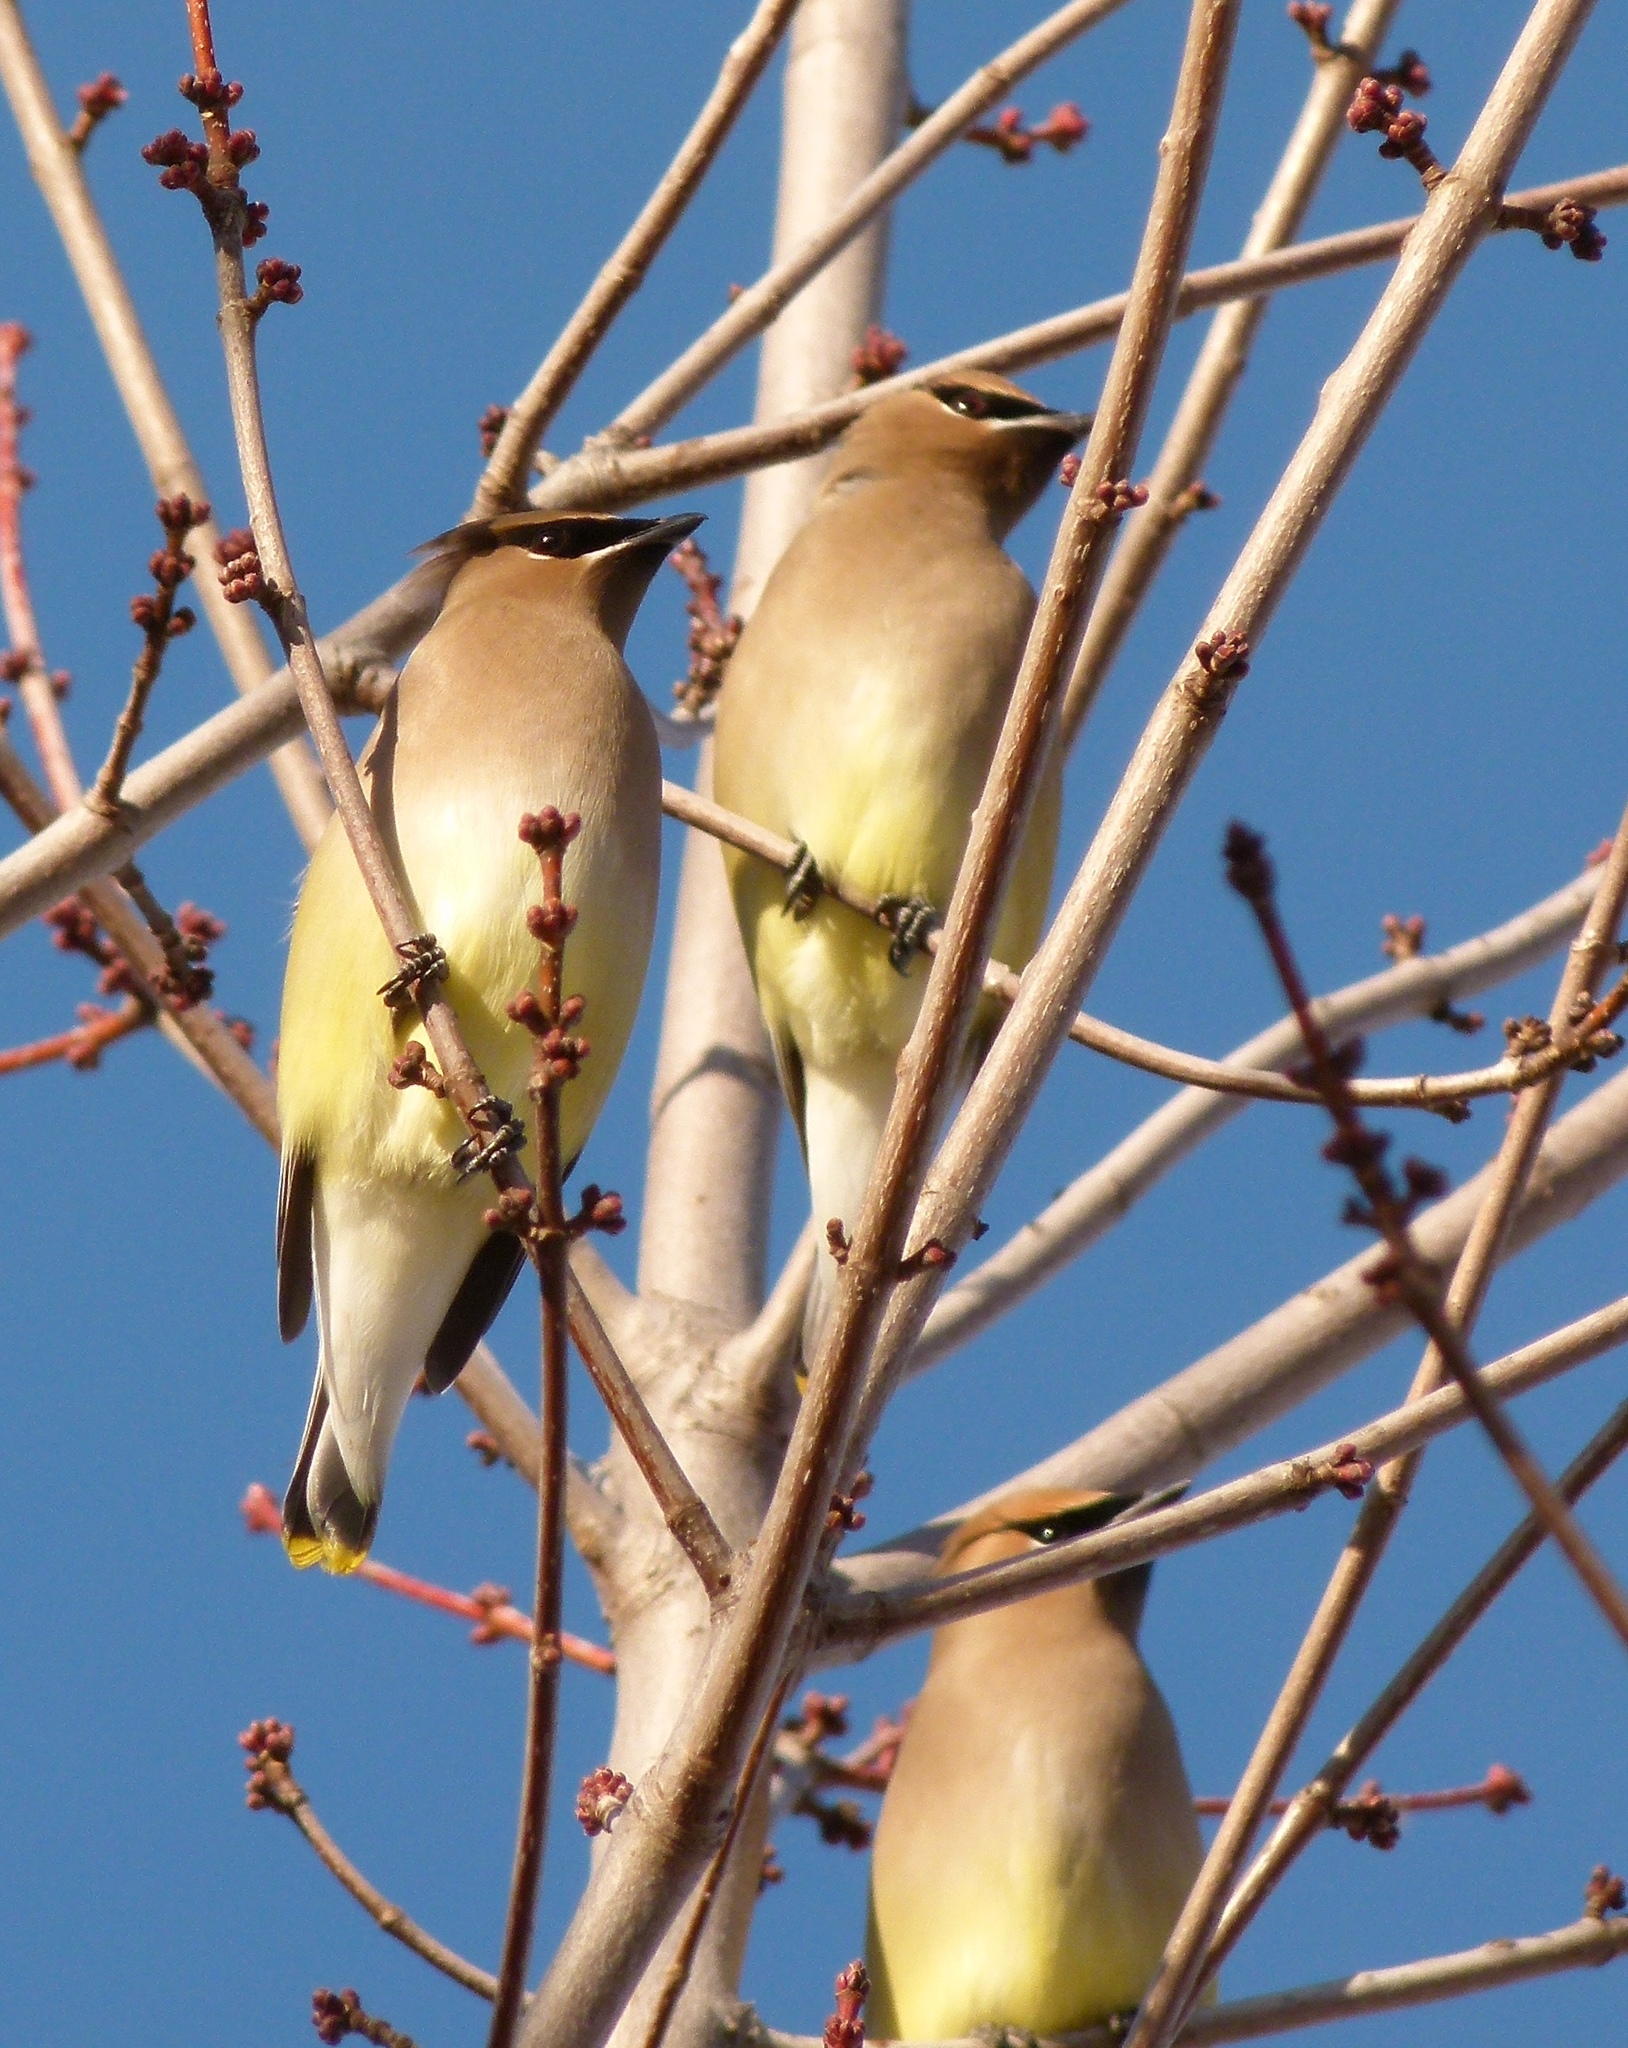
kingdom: Animalia
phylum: Chordata
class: Aves
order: Passeriformes
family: Bombycillidae
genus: Bombycilla
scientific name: Bombycilla cedrorum
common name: Cedar waxwing
